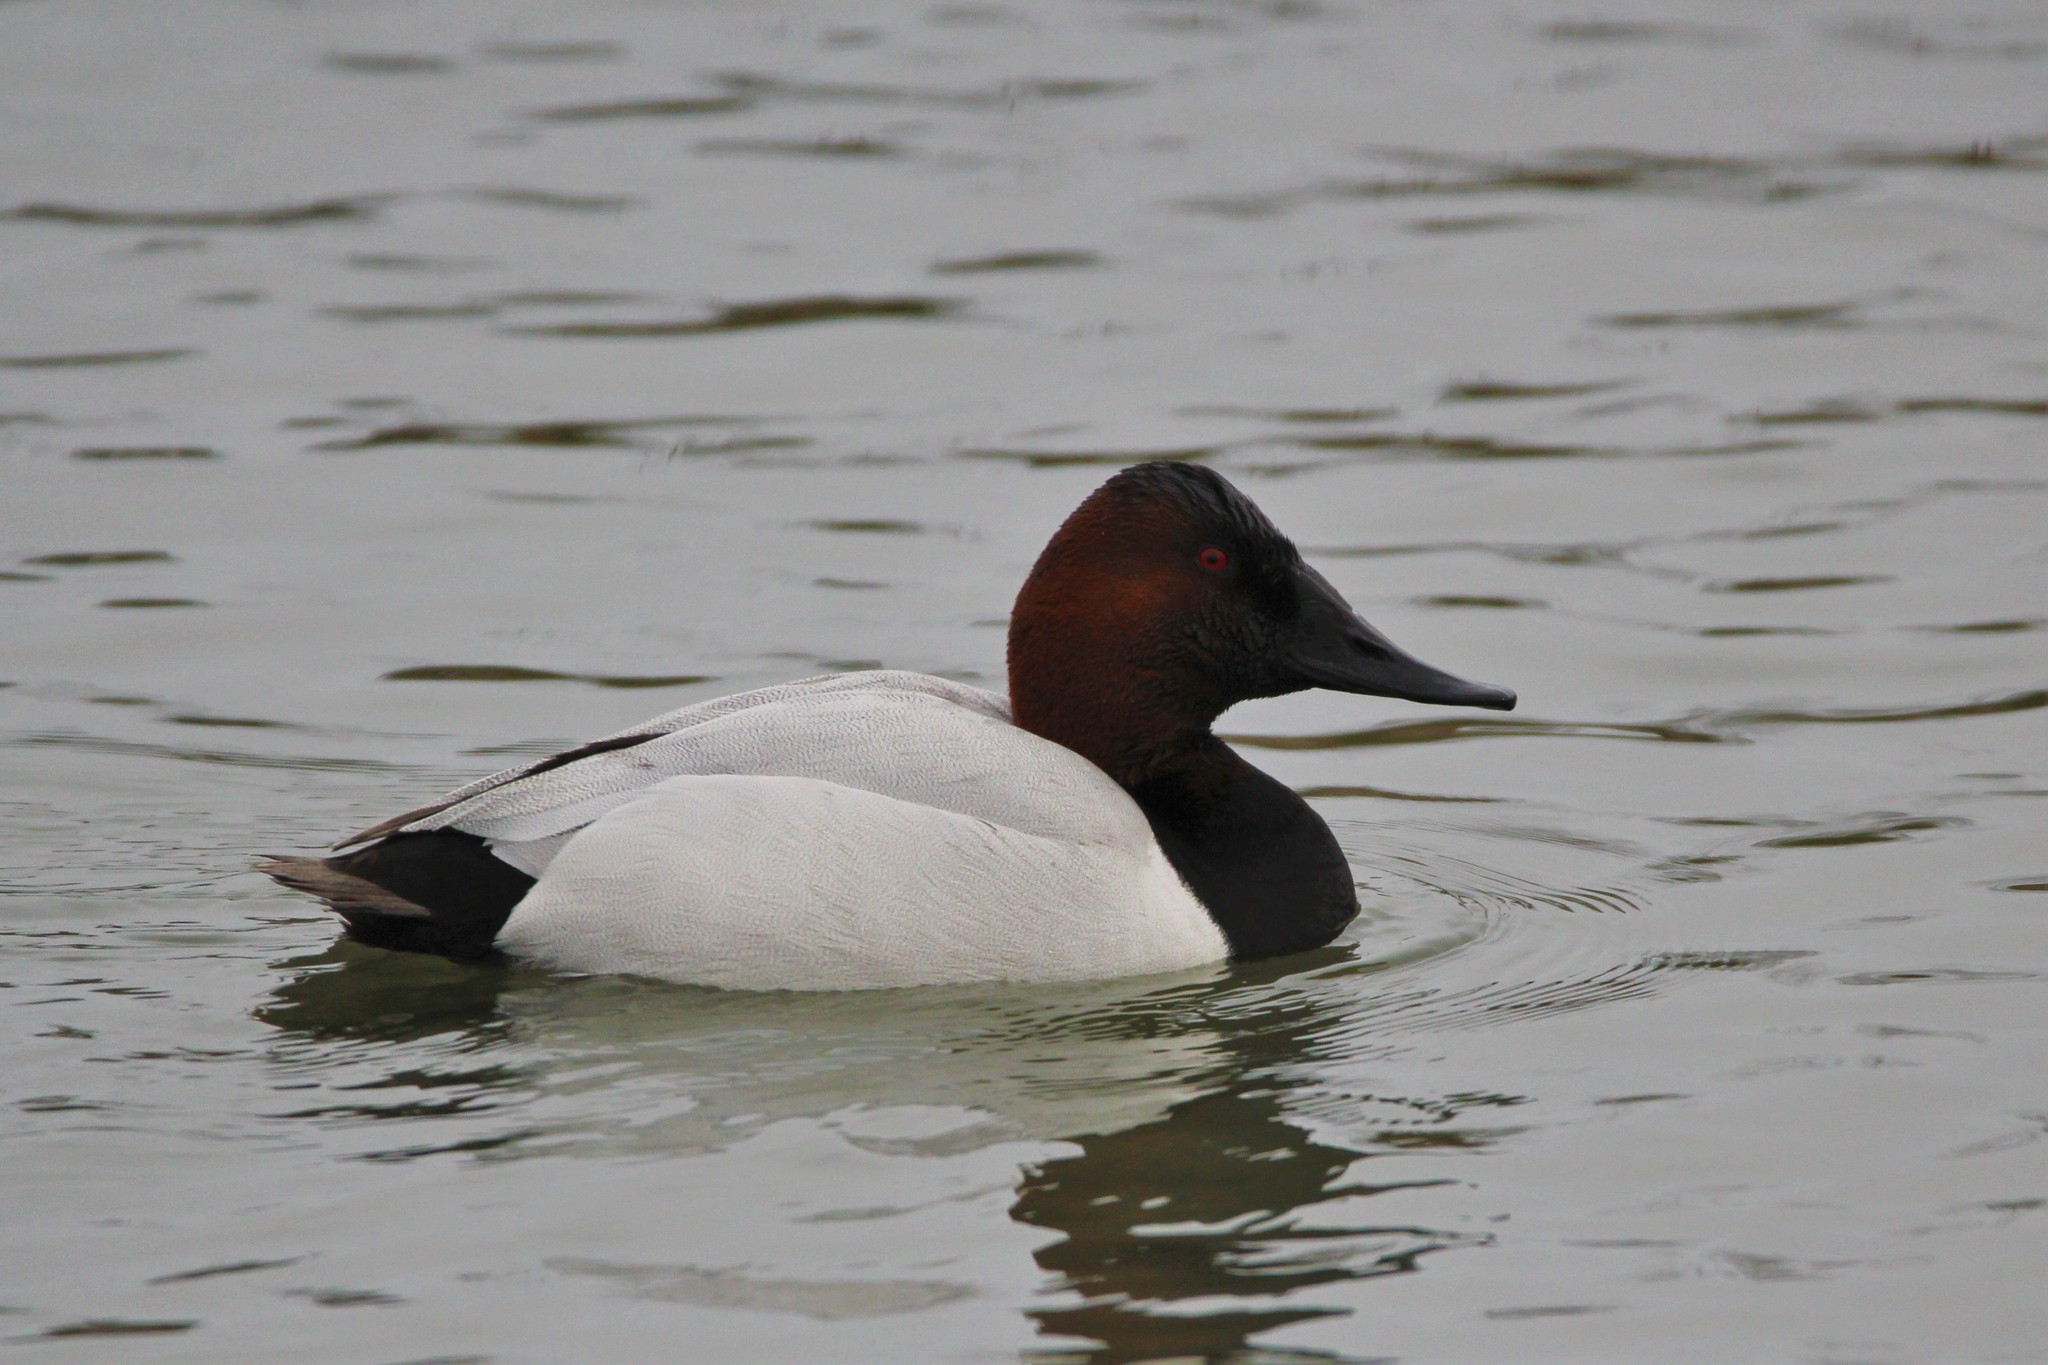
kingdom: Animalia
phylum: Chordata
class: Aves
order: Anseriformes
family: Anatidae
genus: Aythya
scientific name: Aythya valisineria
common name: Canvasback
